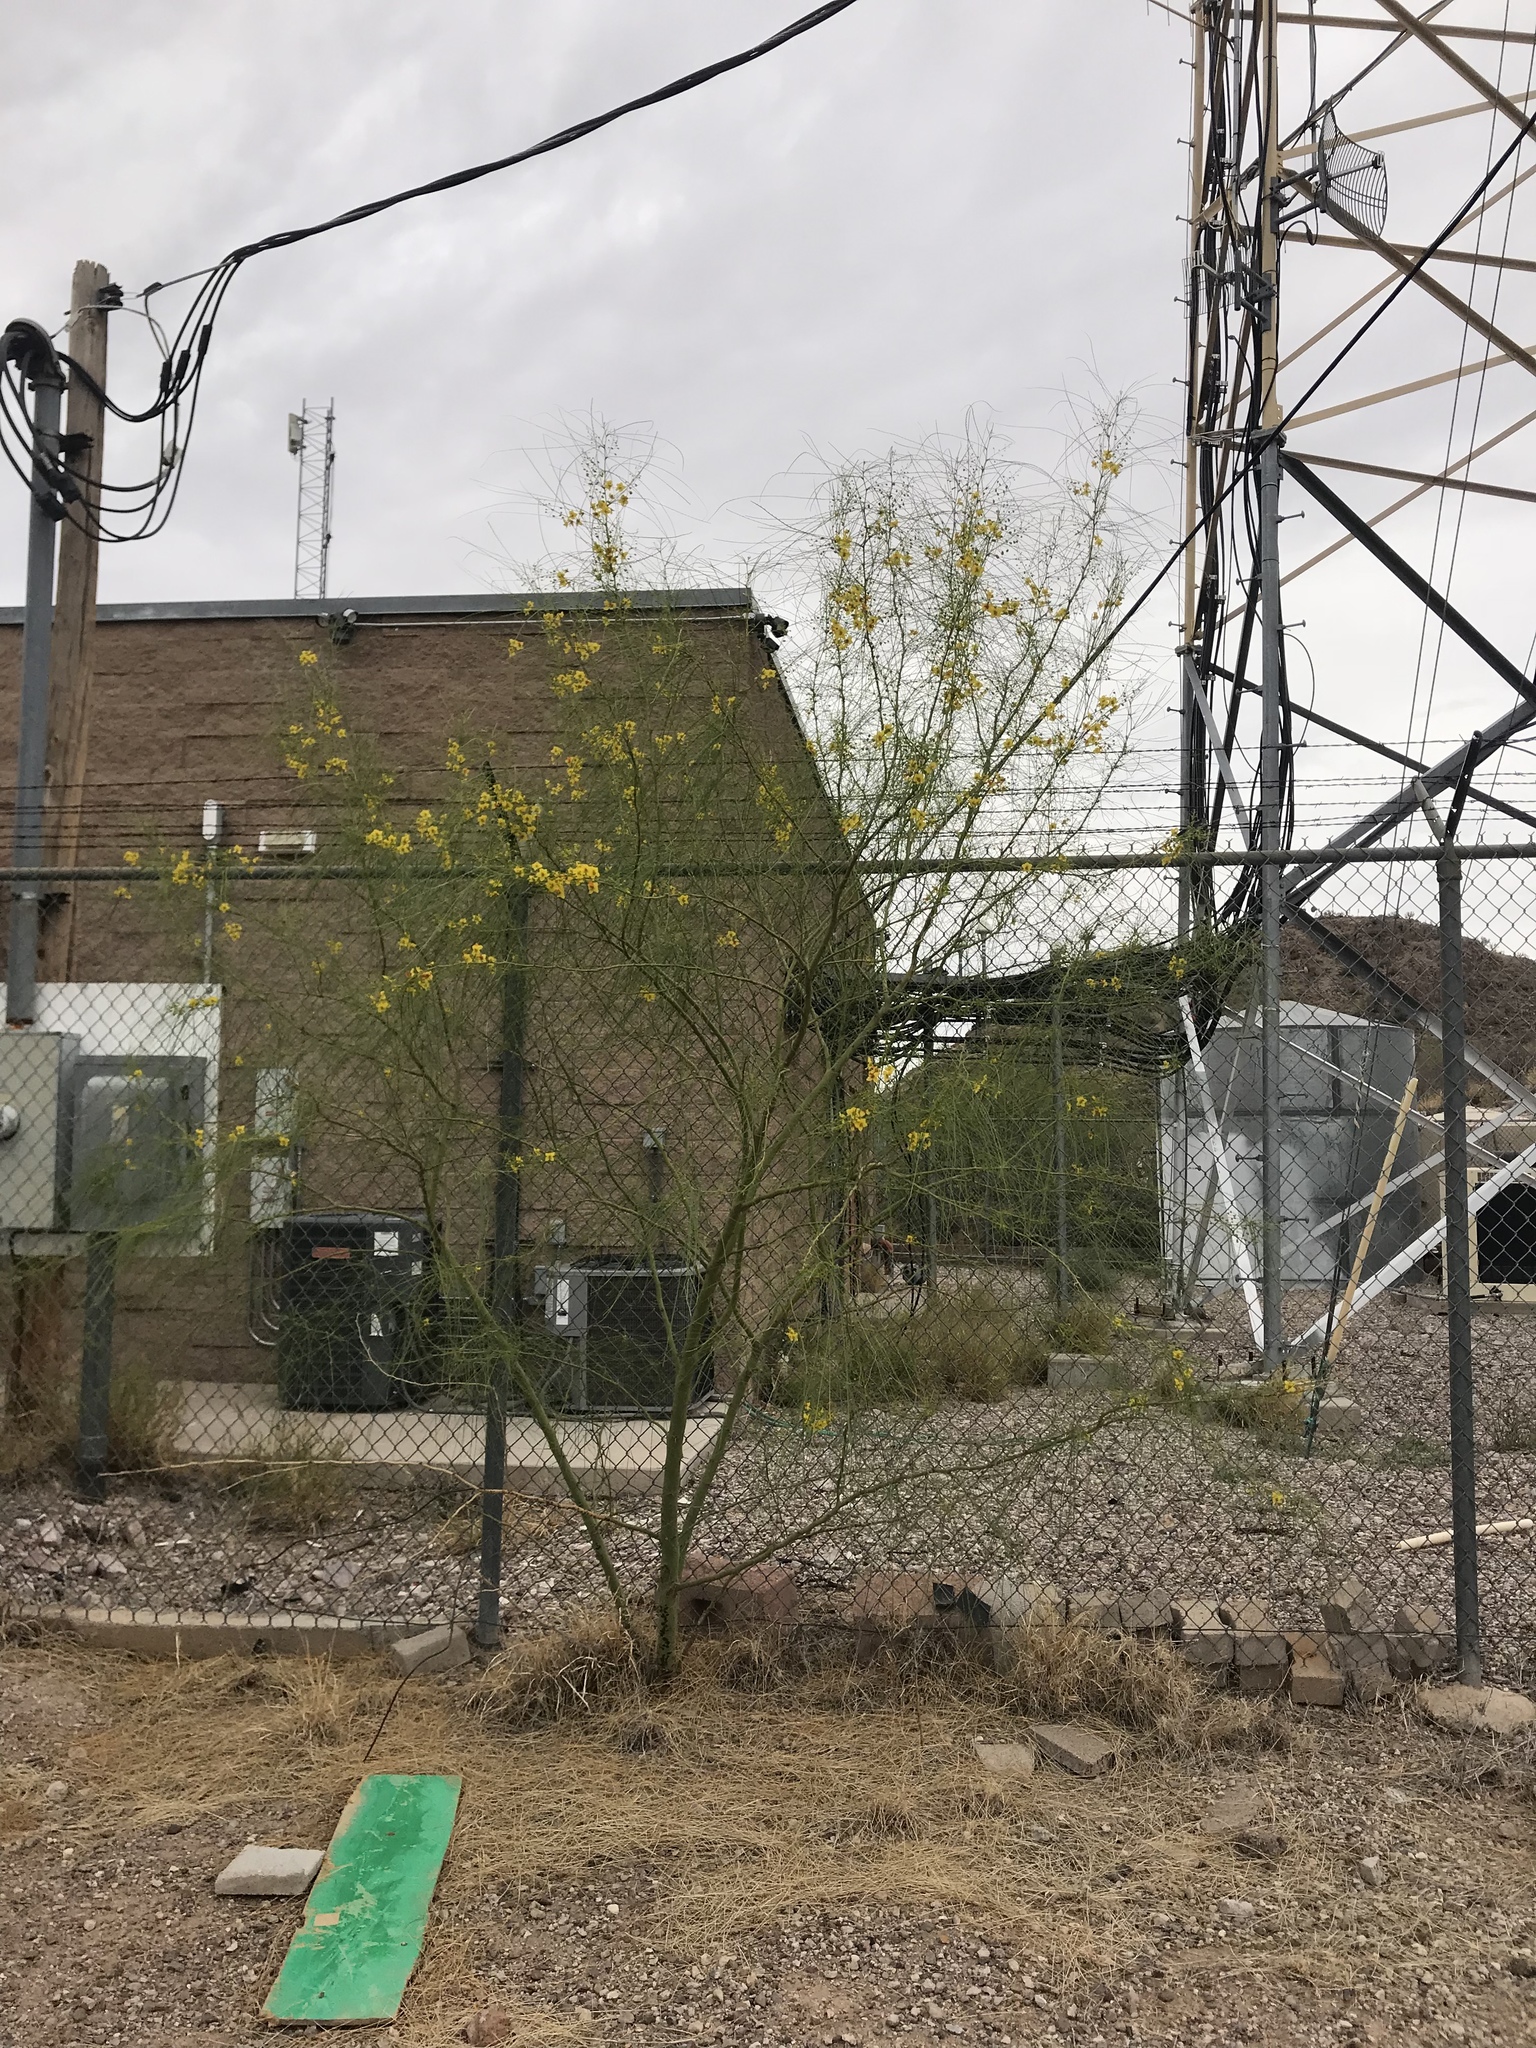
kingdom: Plantae
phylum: Tracheophyta
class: Magnoliopsida
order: Fabales
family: Fabaceae
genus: Parkinsonia
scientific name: Parkinsonia aculeata
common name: Jerusalem thorn
